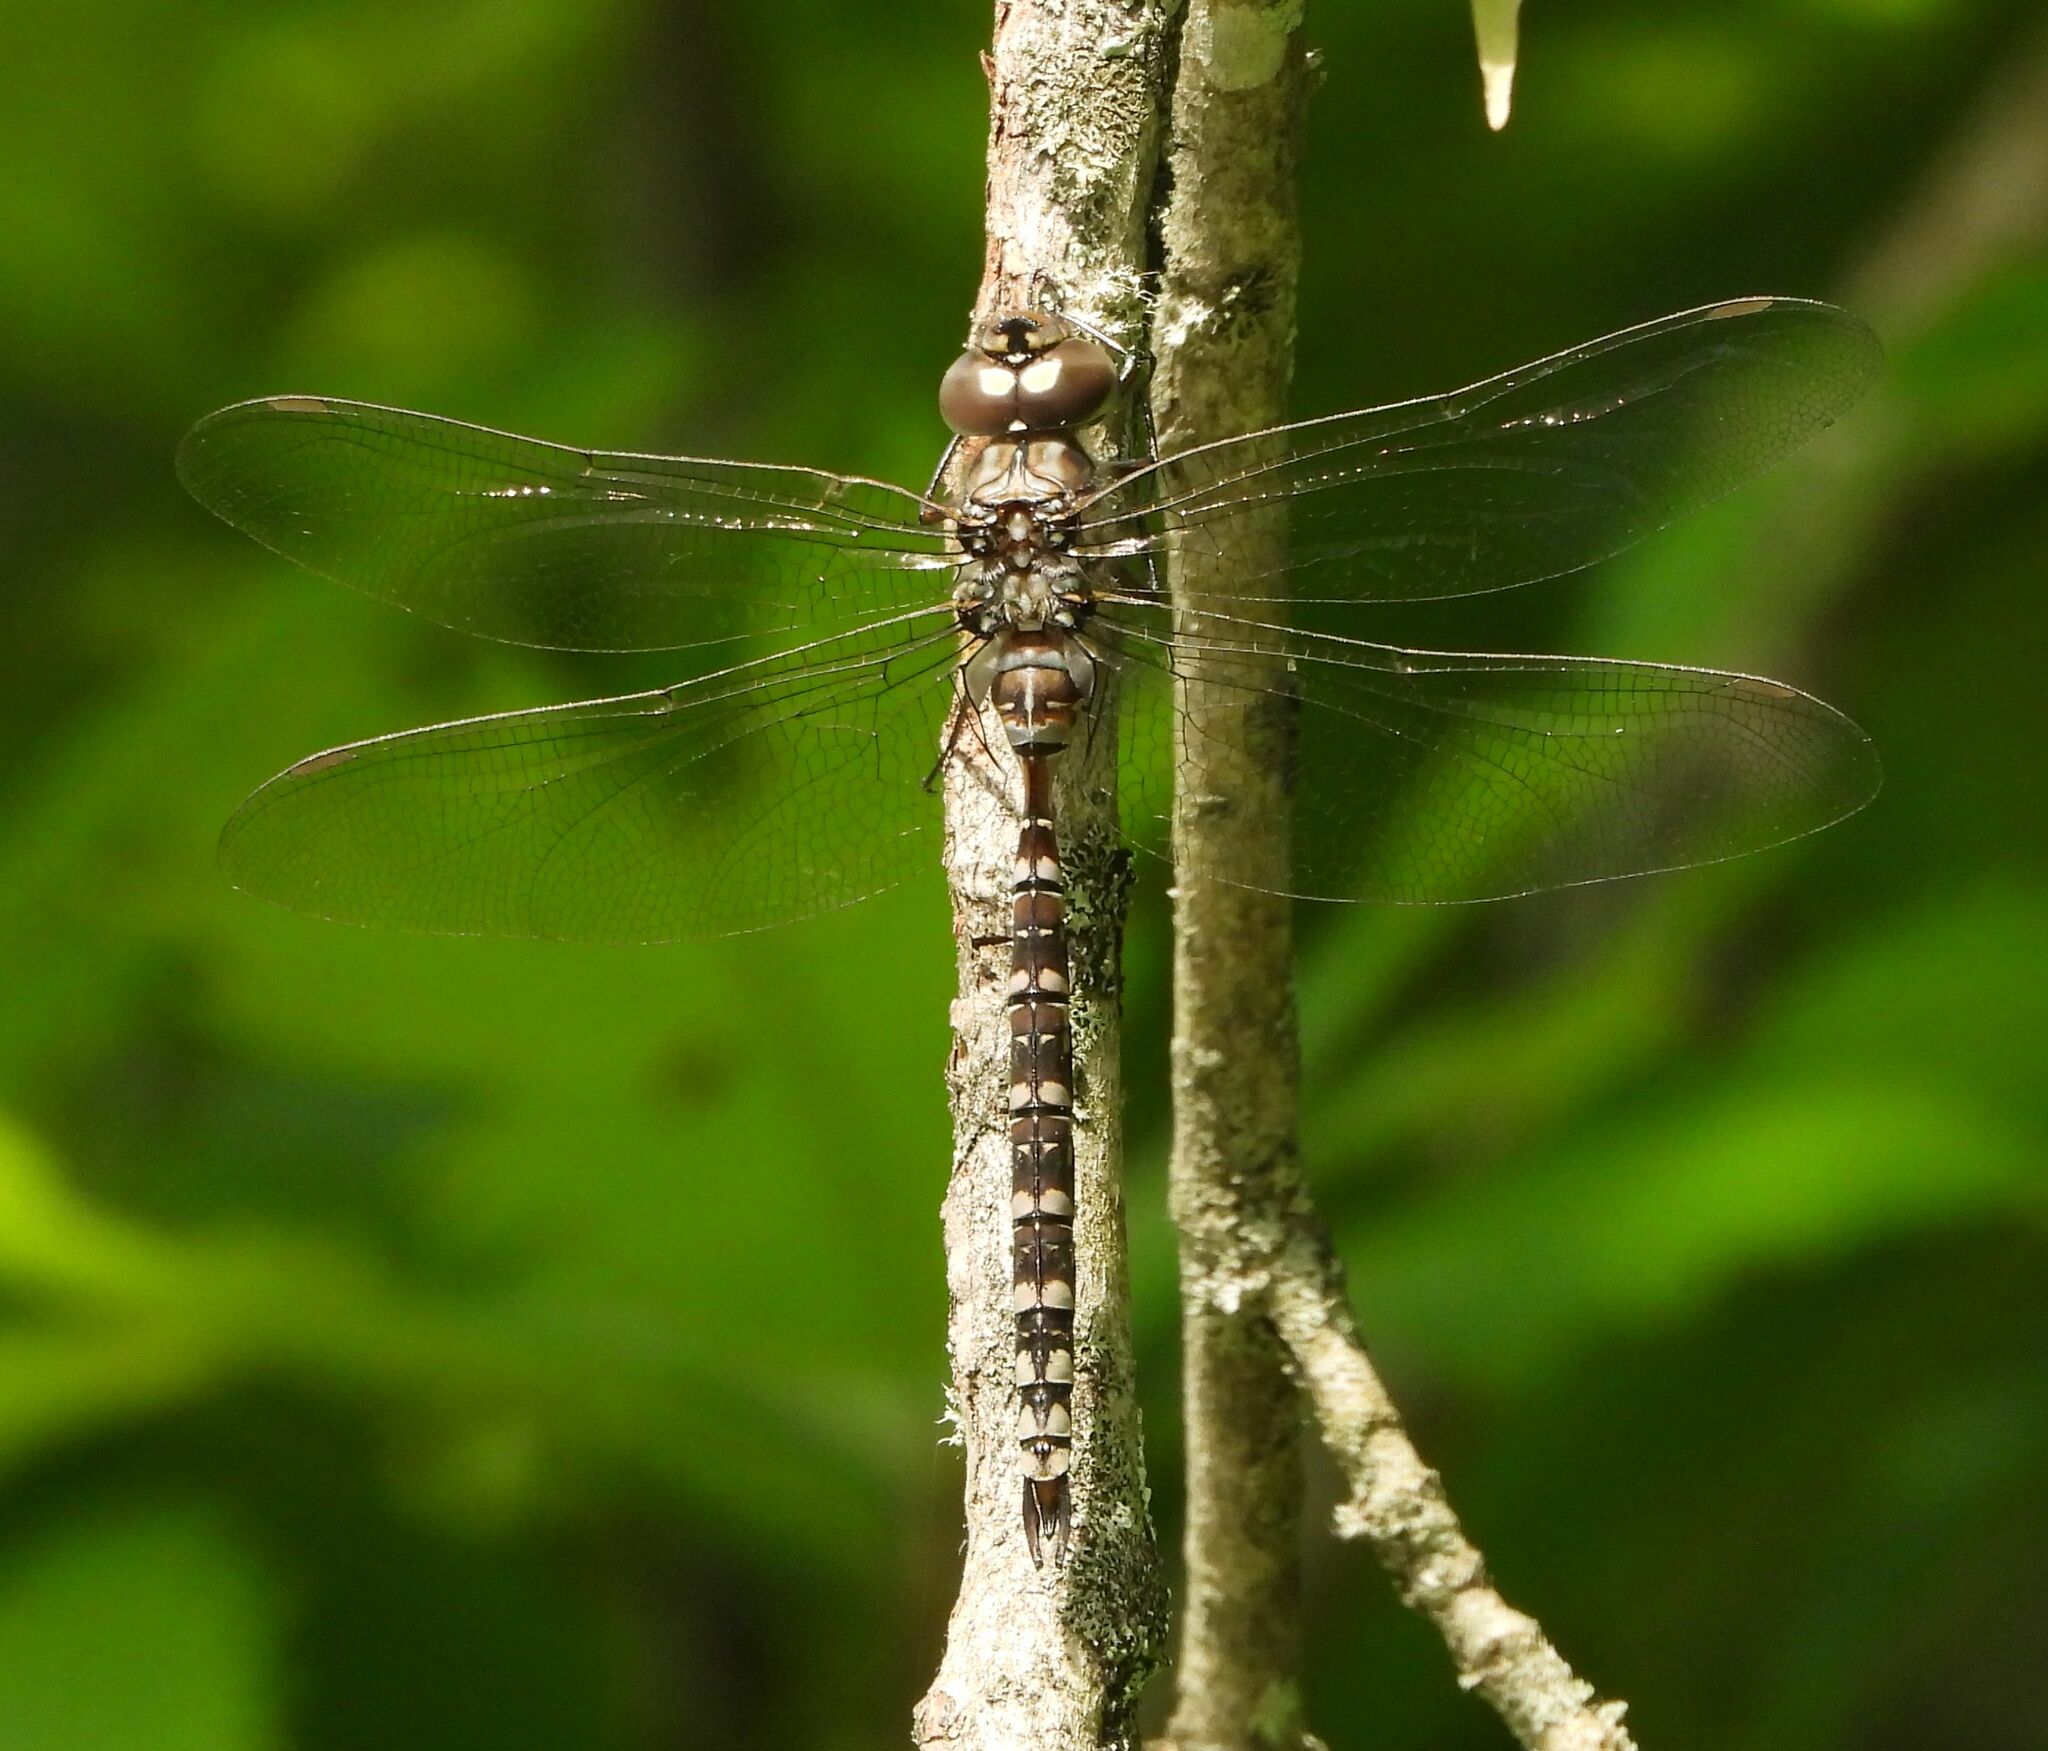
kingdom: Animalia
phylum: Arthropoda
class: Insecta
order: Odonata
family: Aeshnidae
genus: Aeshna
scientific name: Aeshna canadensis
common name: Canada darner
